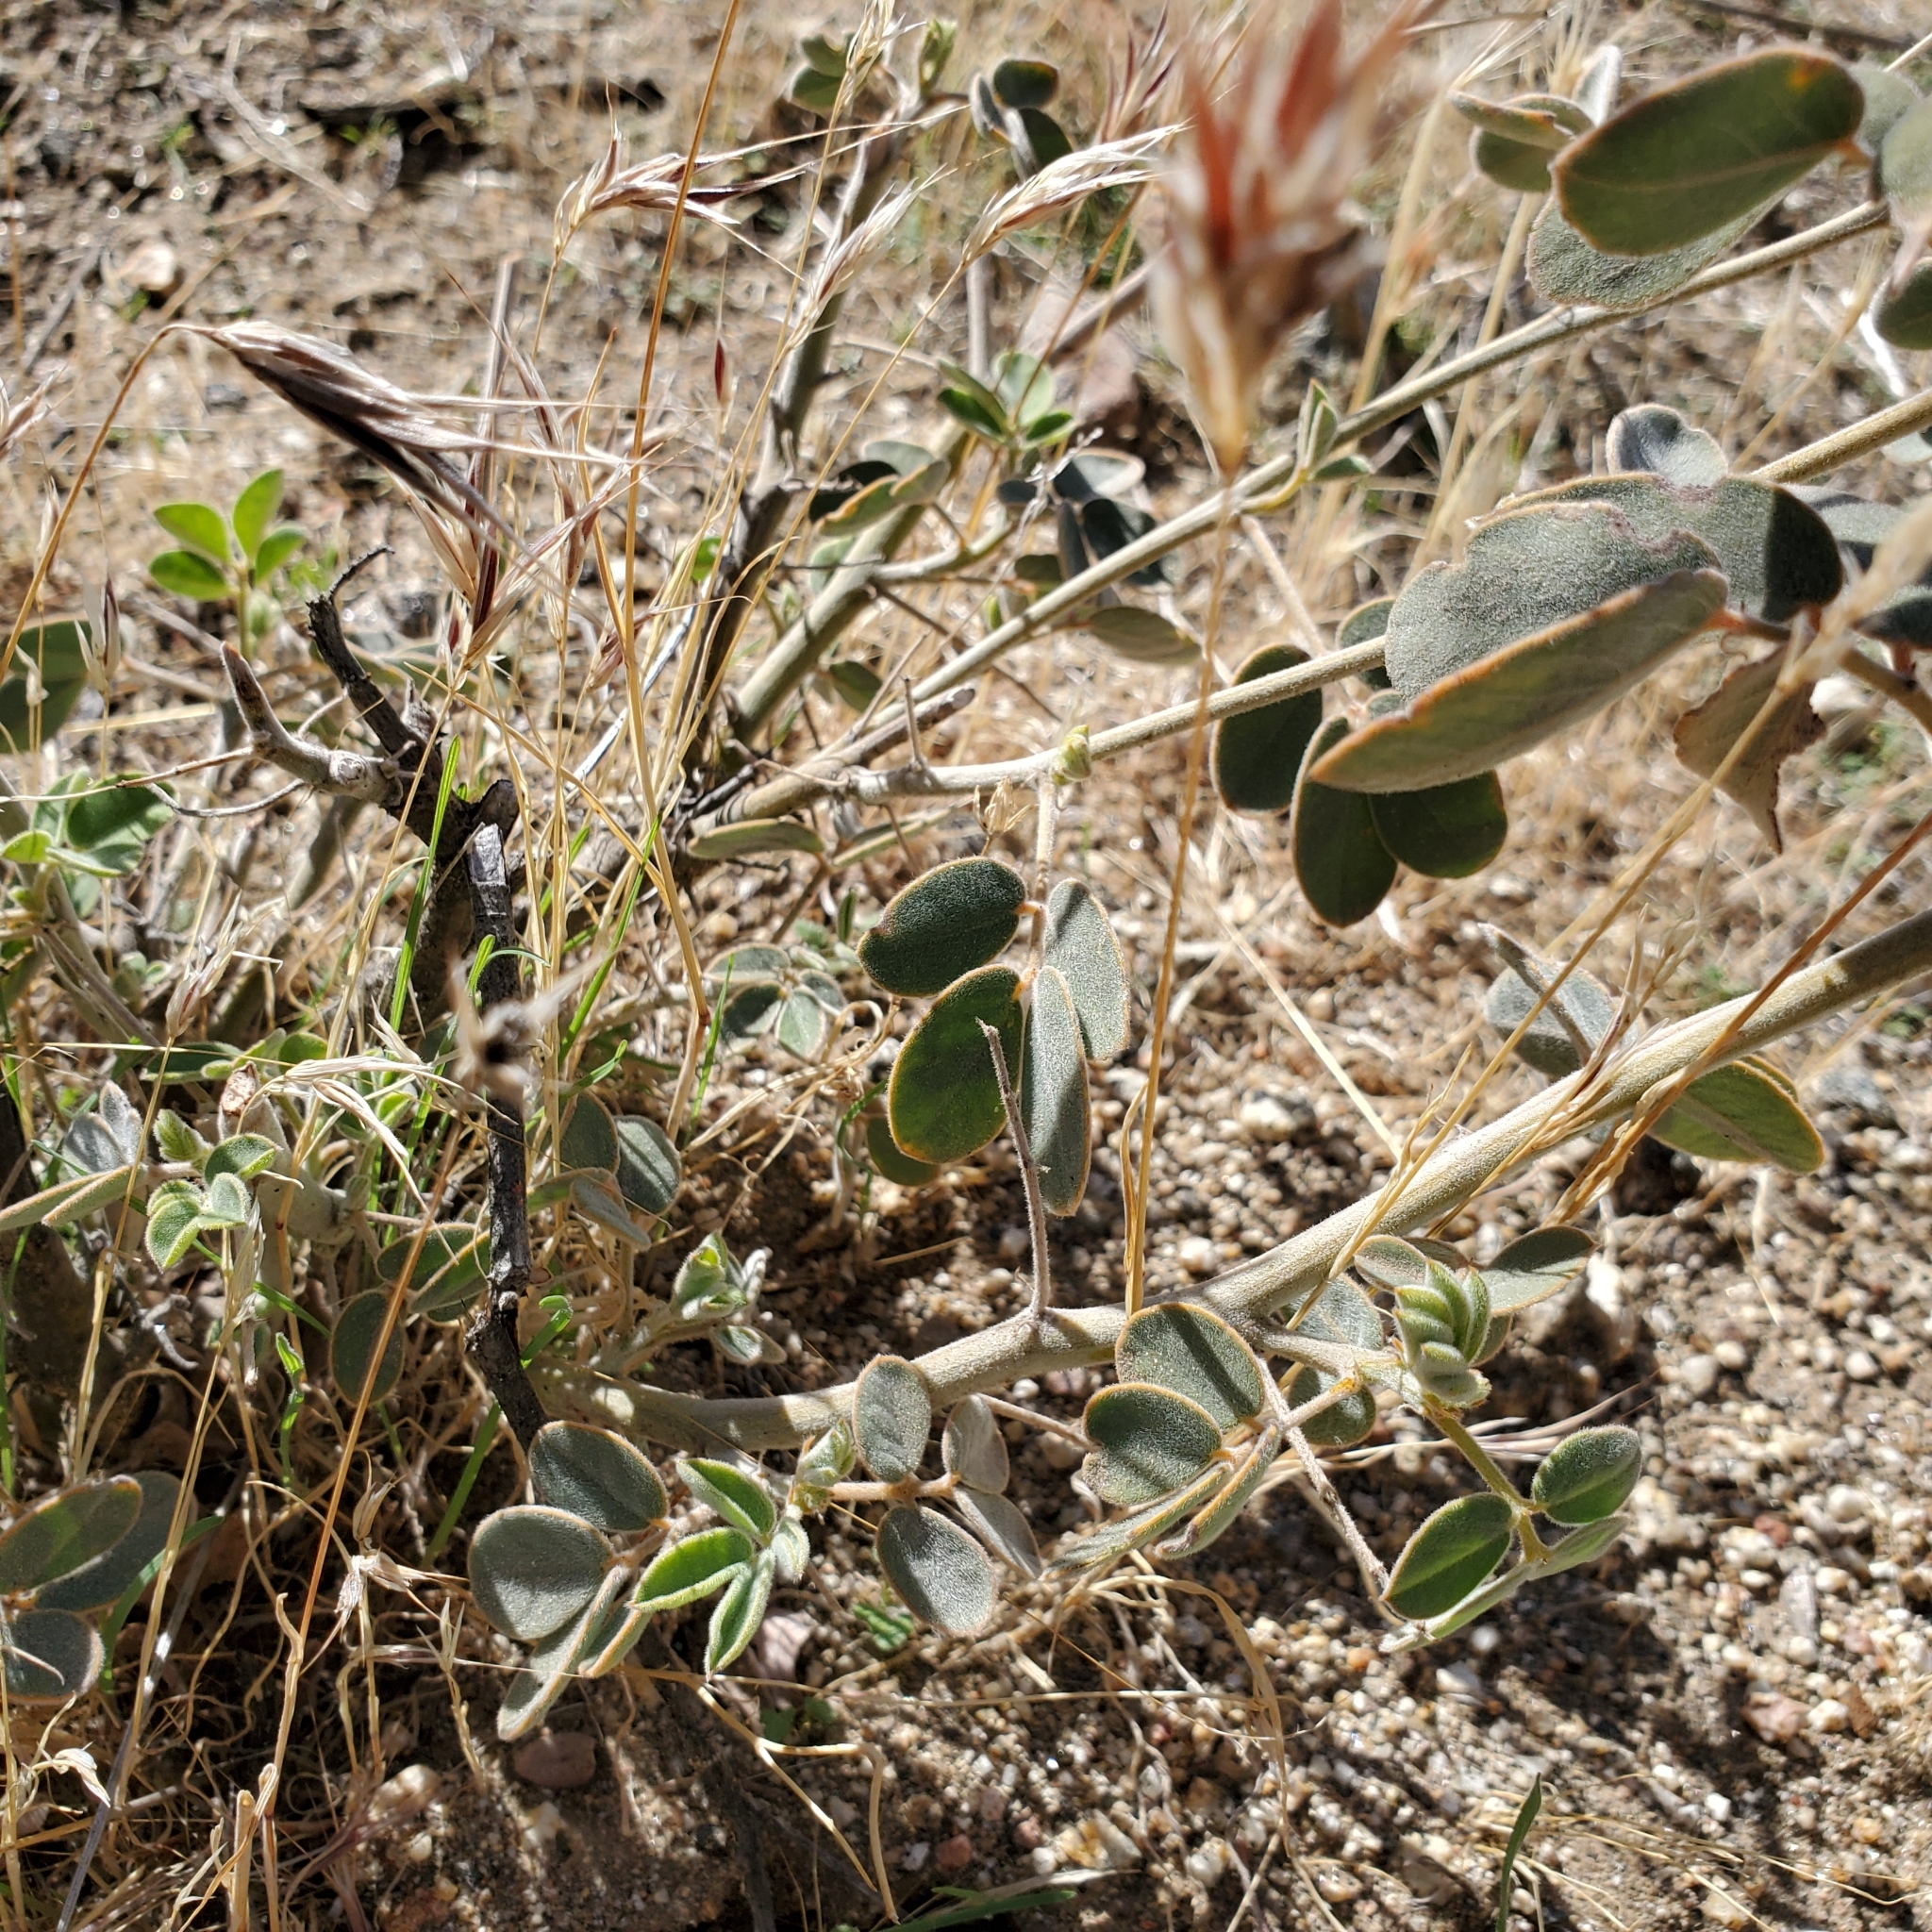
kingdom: Plantae
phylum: Tracheophyta
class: Magnoliopsida
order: Fabales
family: Fabaceae
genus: Senna
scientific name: Senna covesii
